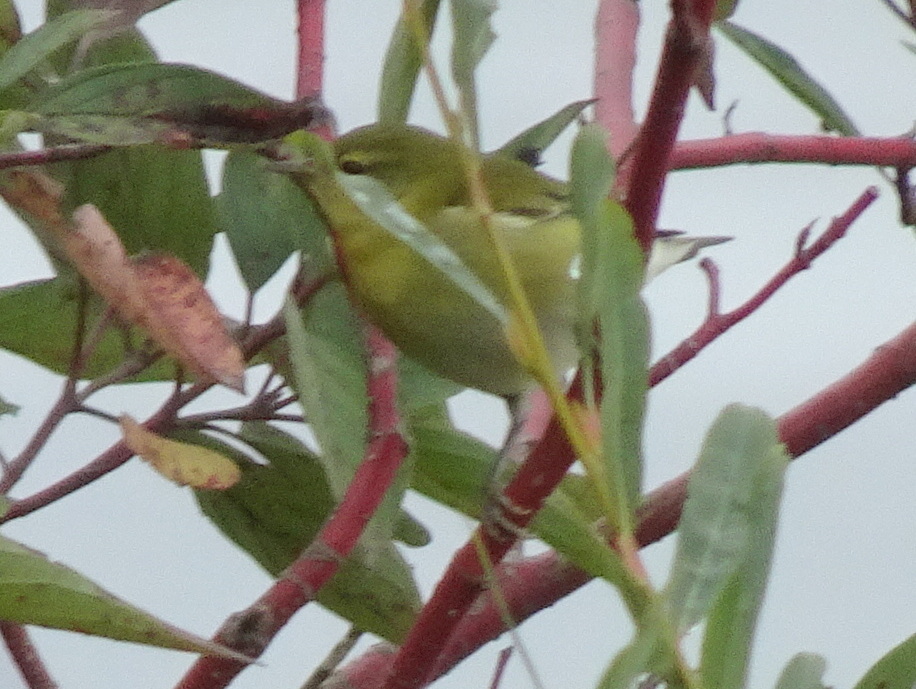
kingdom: Animalia
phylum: Chordata
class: Aves
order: Passeriformes
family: Parulidae
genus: Leiothlypis
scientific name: Leiothlypis peregrina
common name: Tennessee warbler
